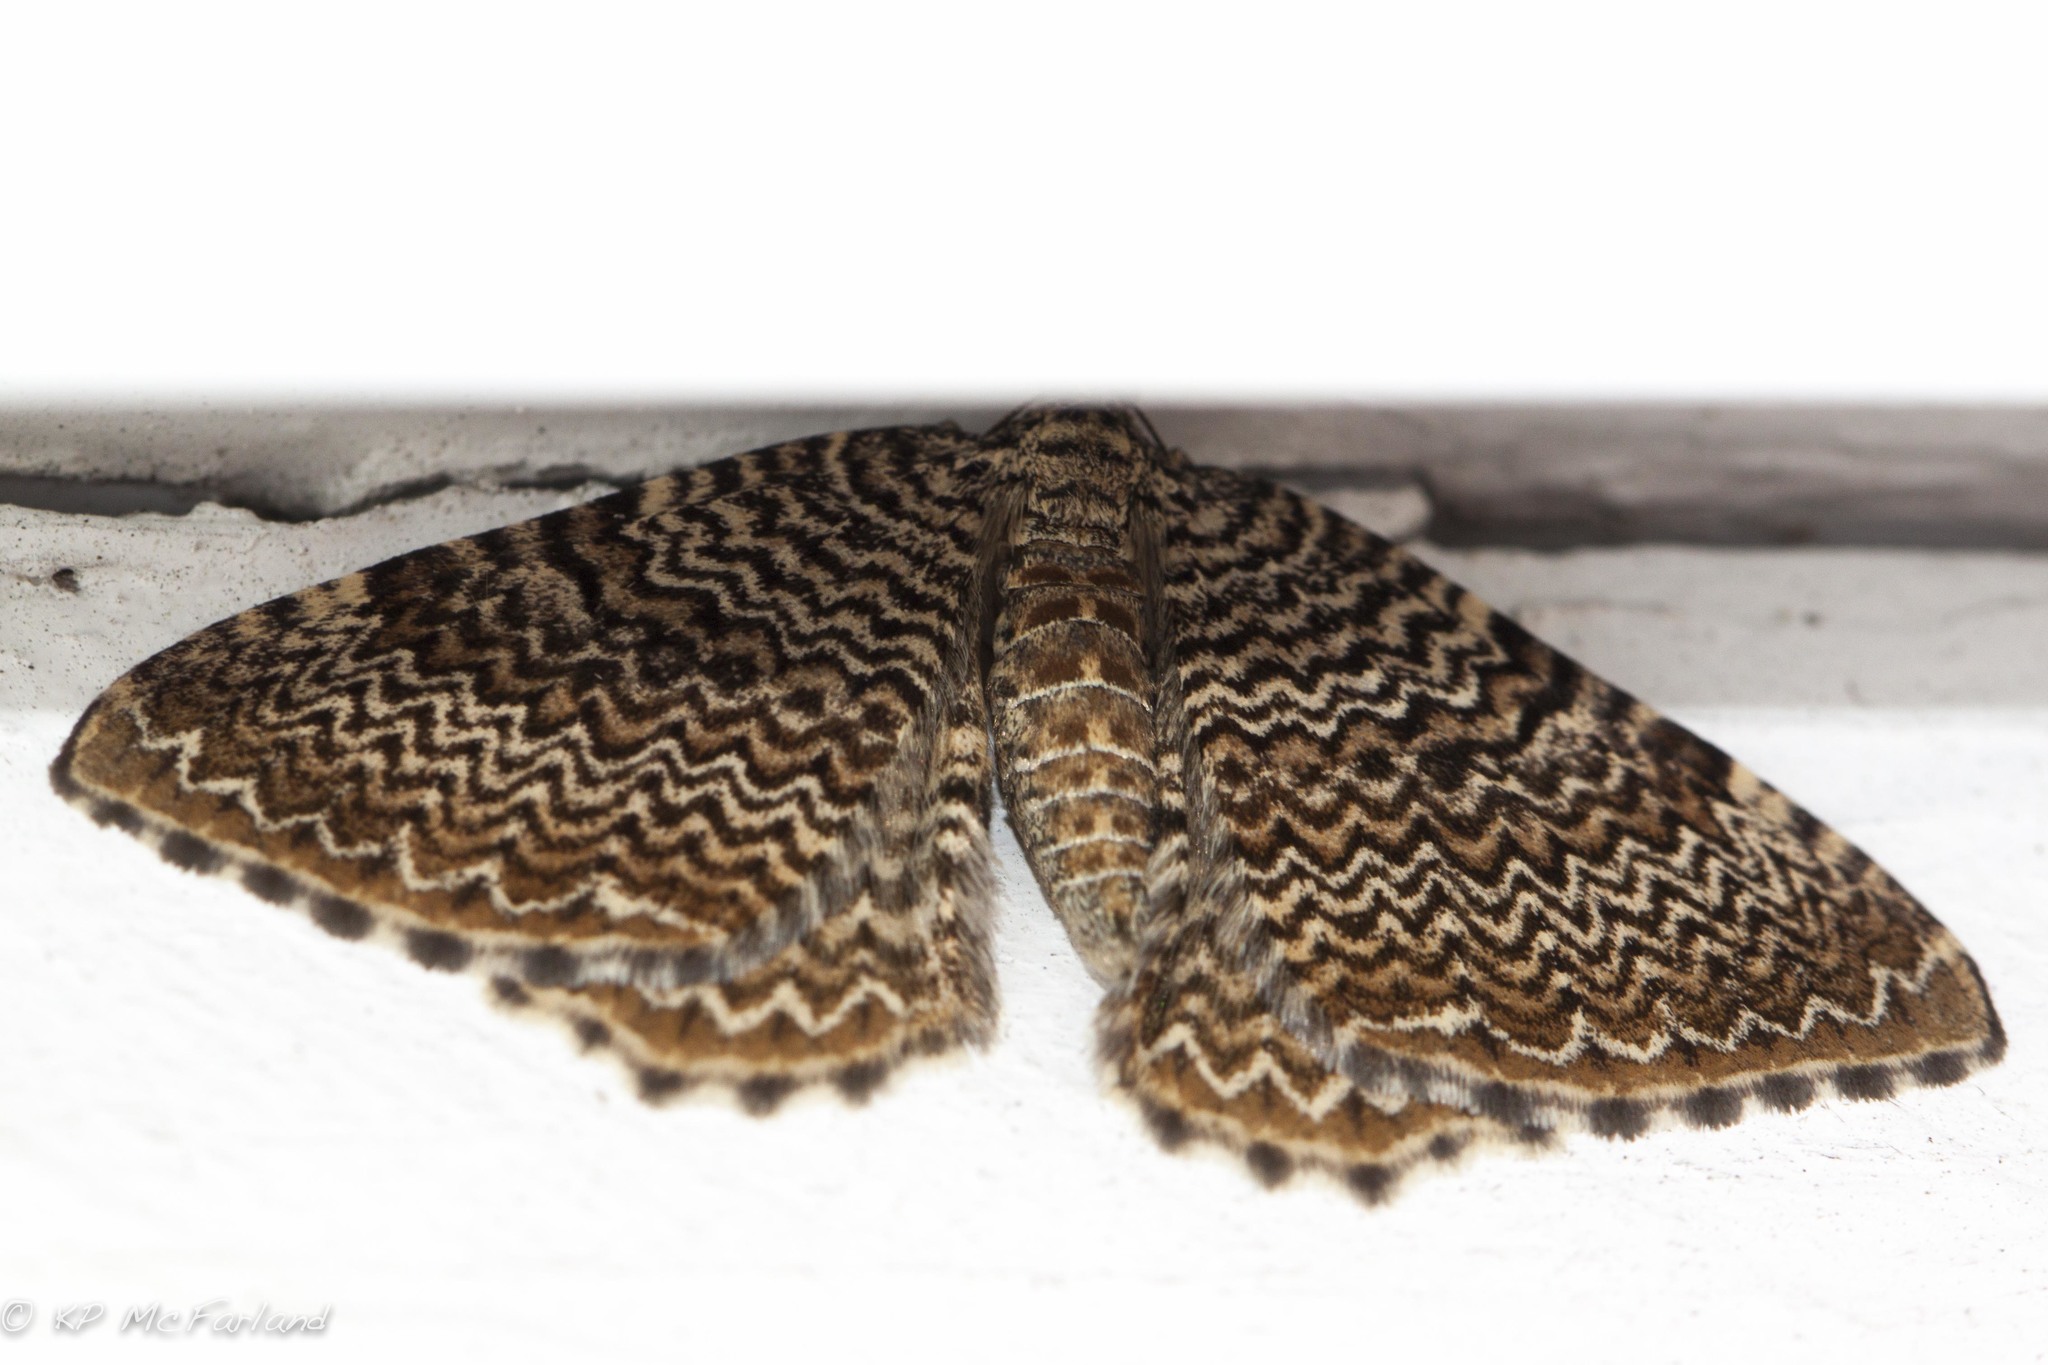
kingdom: Animalia
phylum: Arthropoda
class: Insecta
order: Lepidoptera
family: Geometridae
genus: Rheumaptera
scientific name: Rheumaptera
